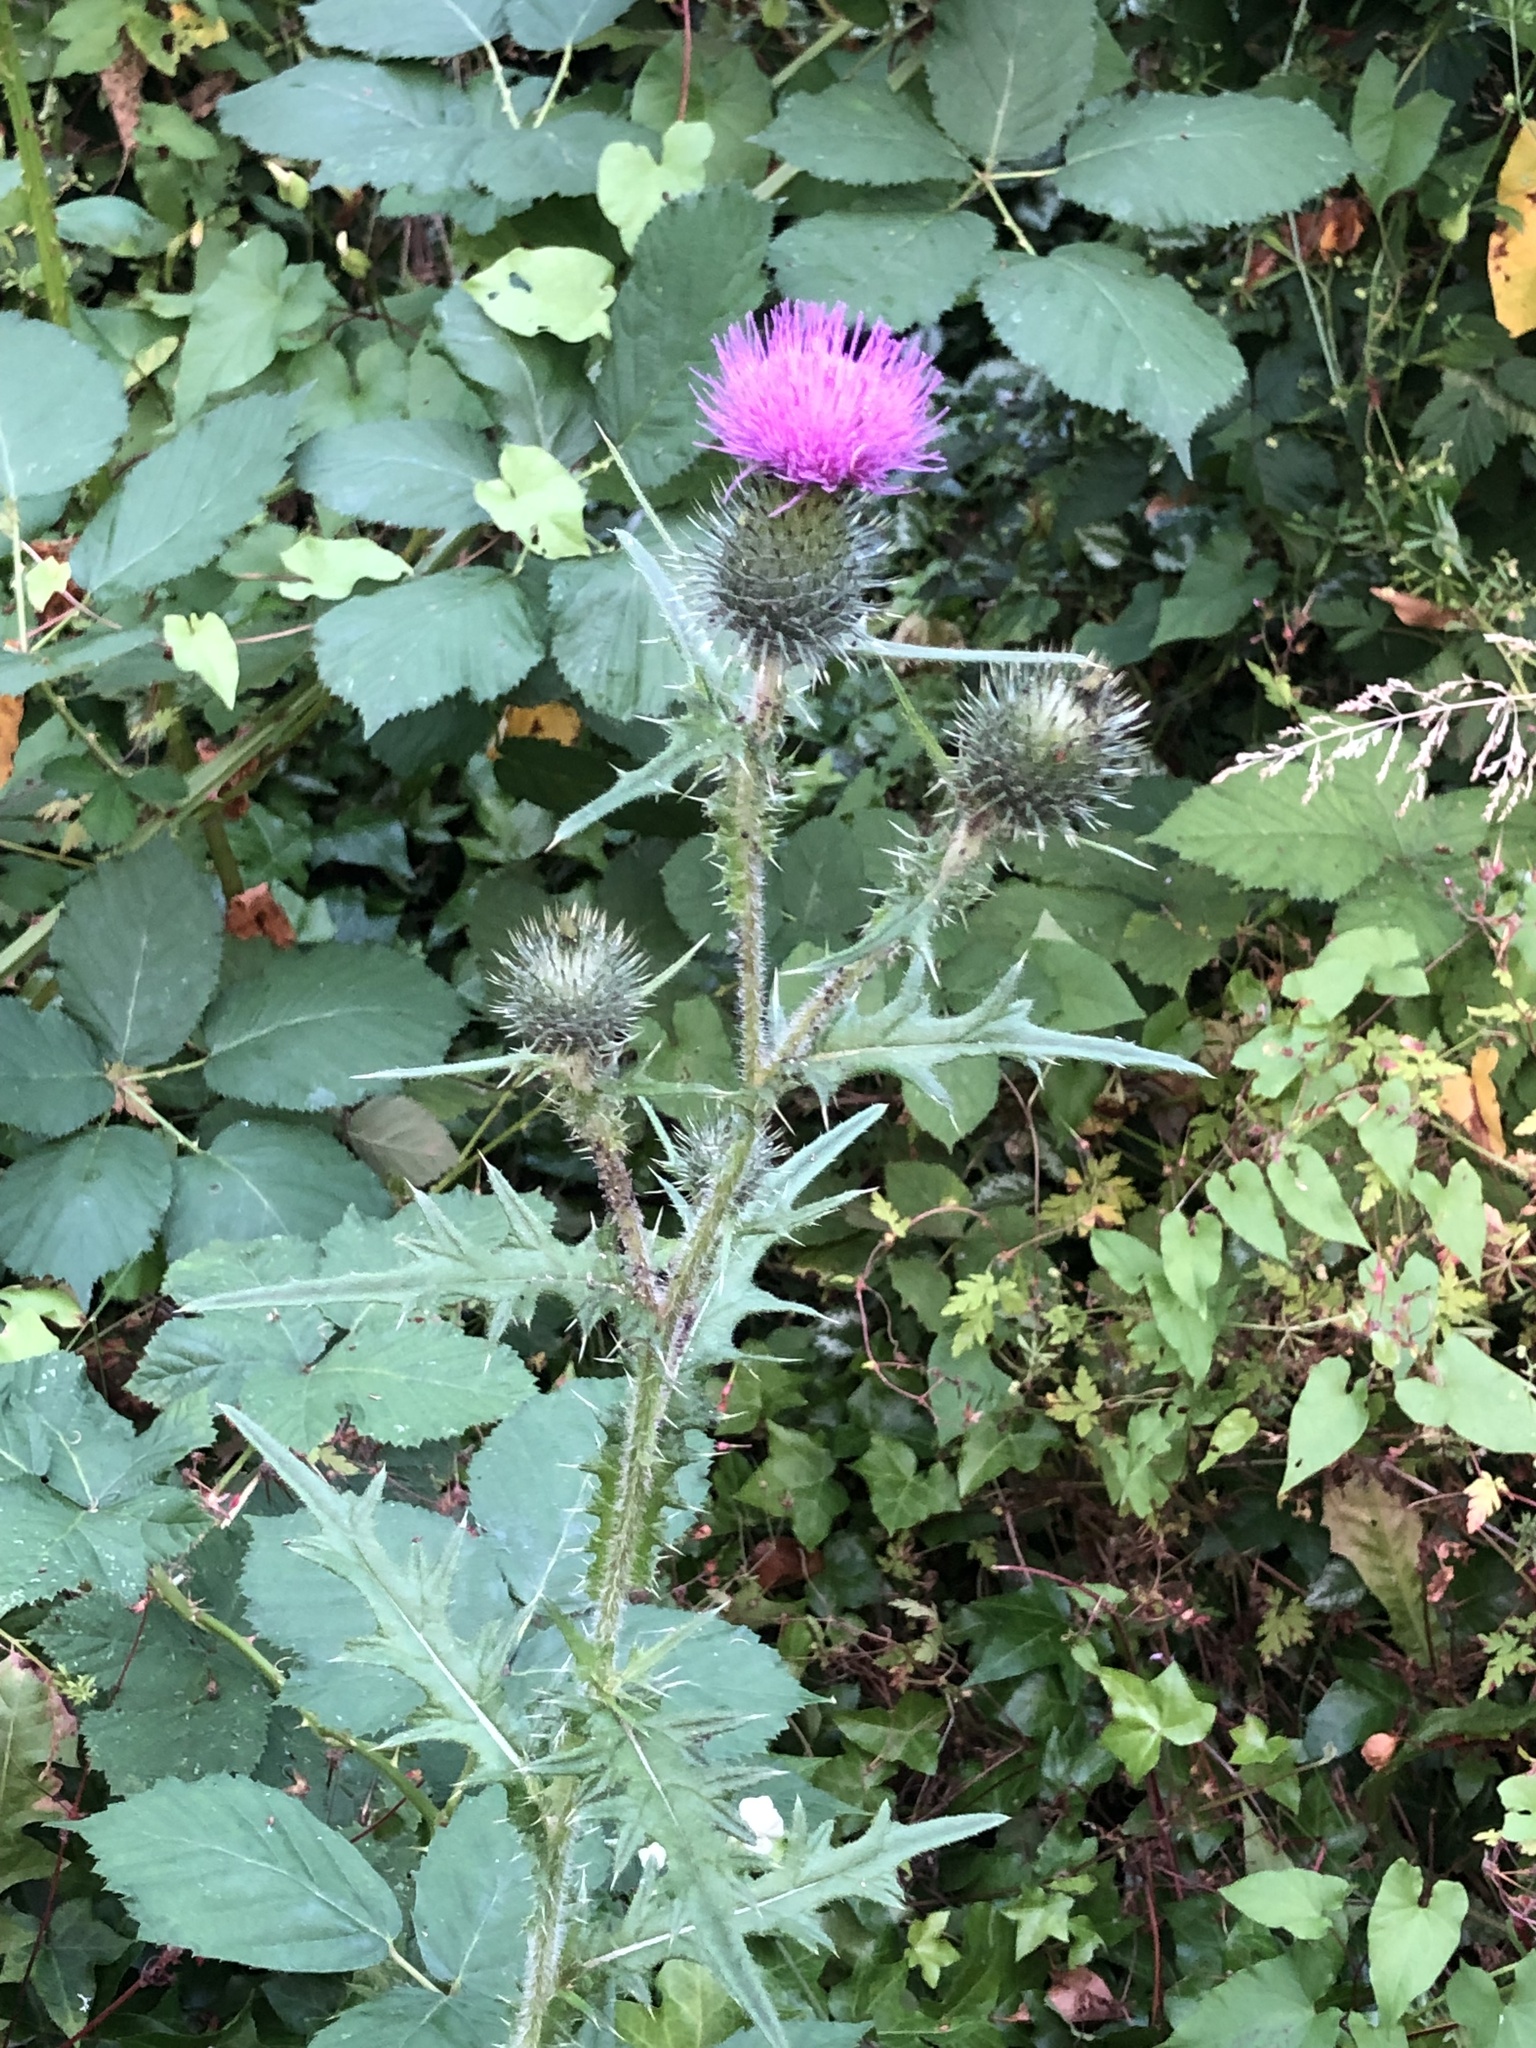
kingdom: Plantae
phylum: Tracheophyta
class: Magnoliopsida
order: Asterales
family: Asteraceae
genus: Cirsium
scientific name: Cirsium vulgare
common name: Bull thistle
